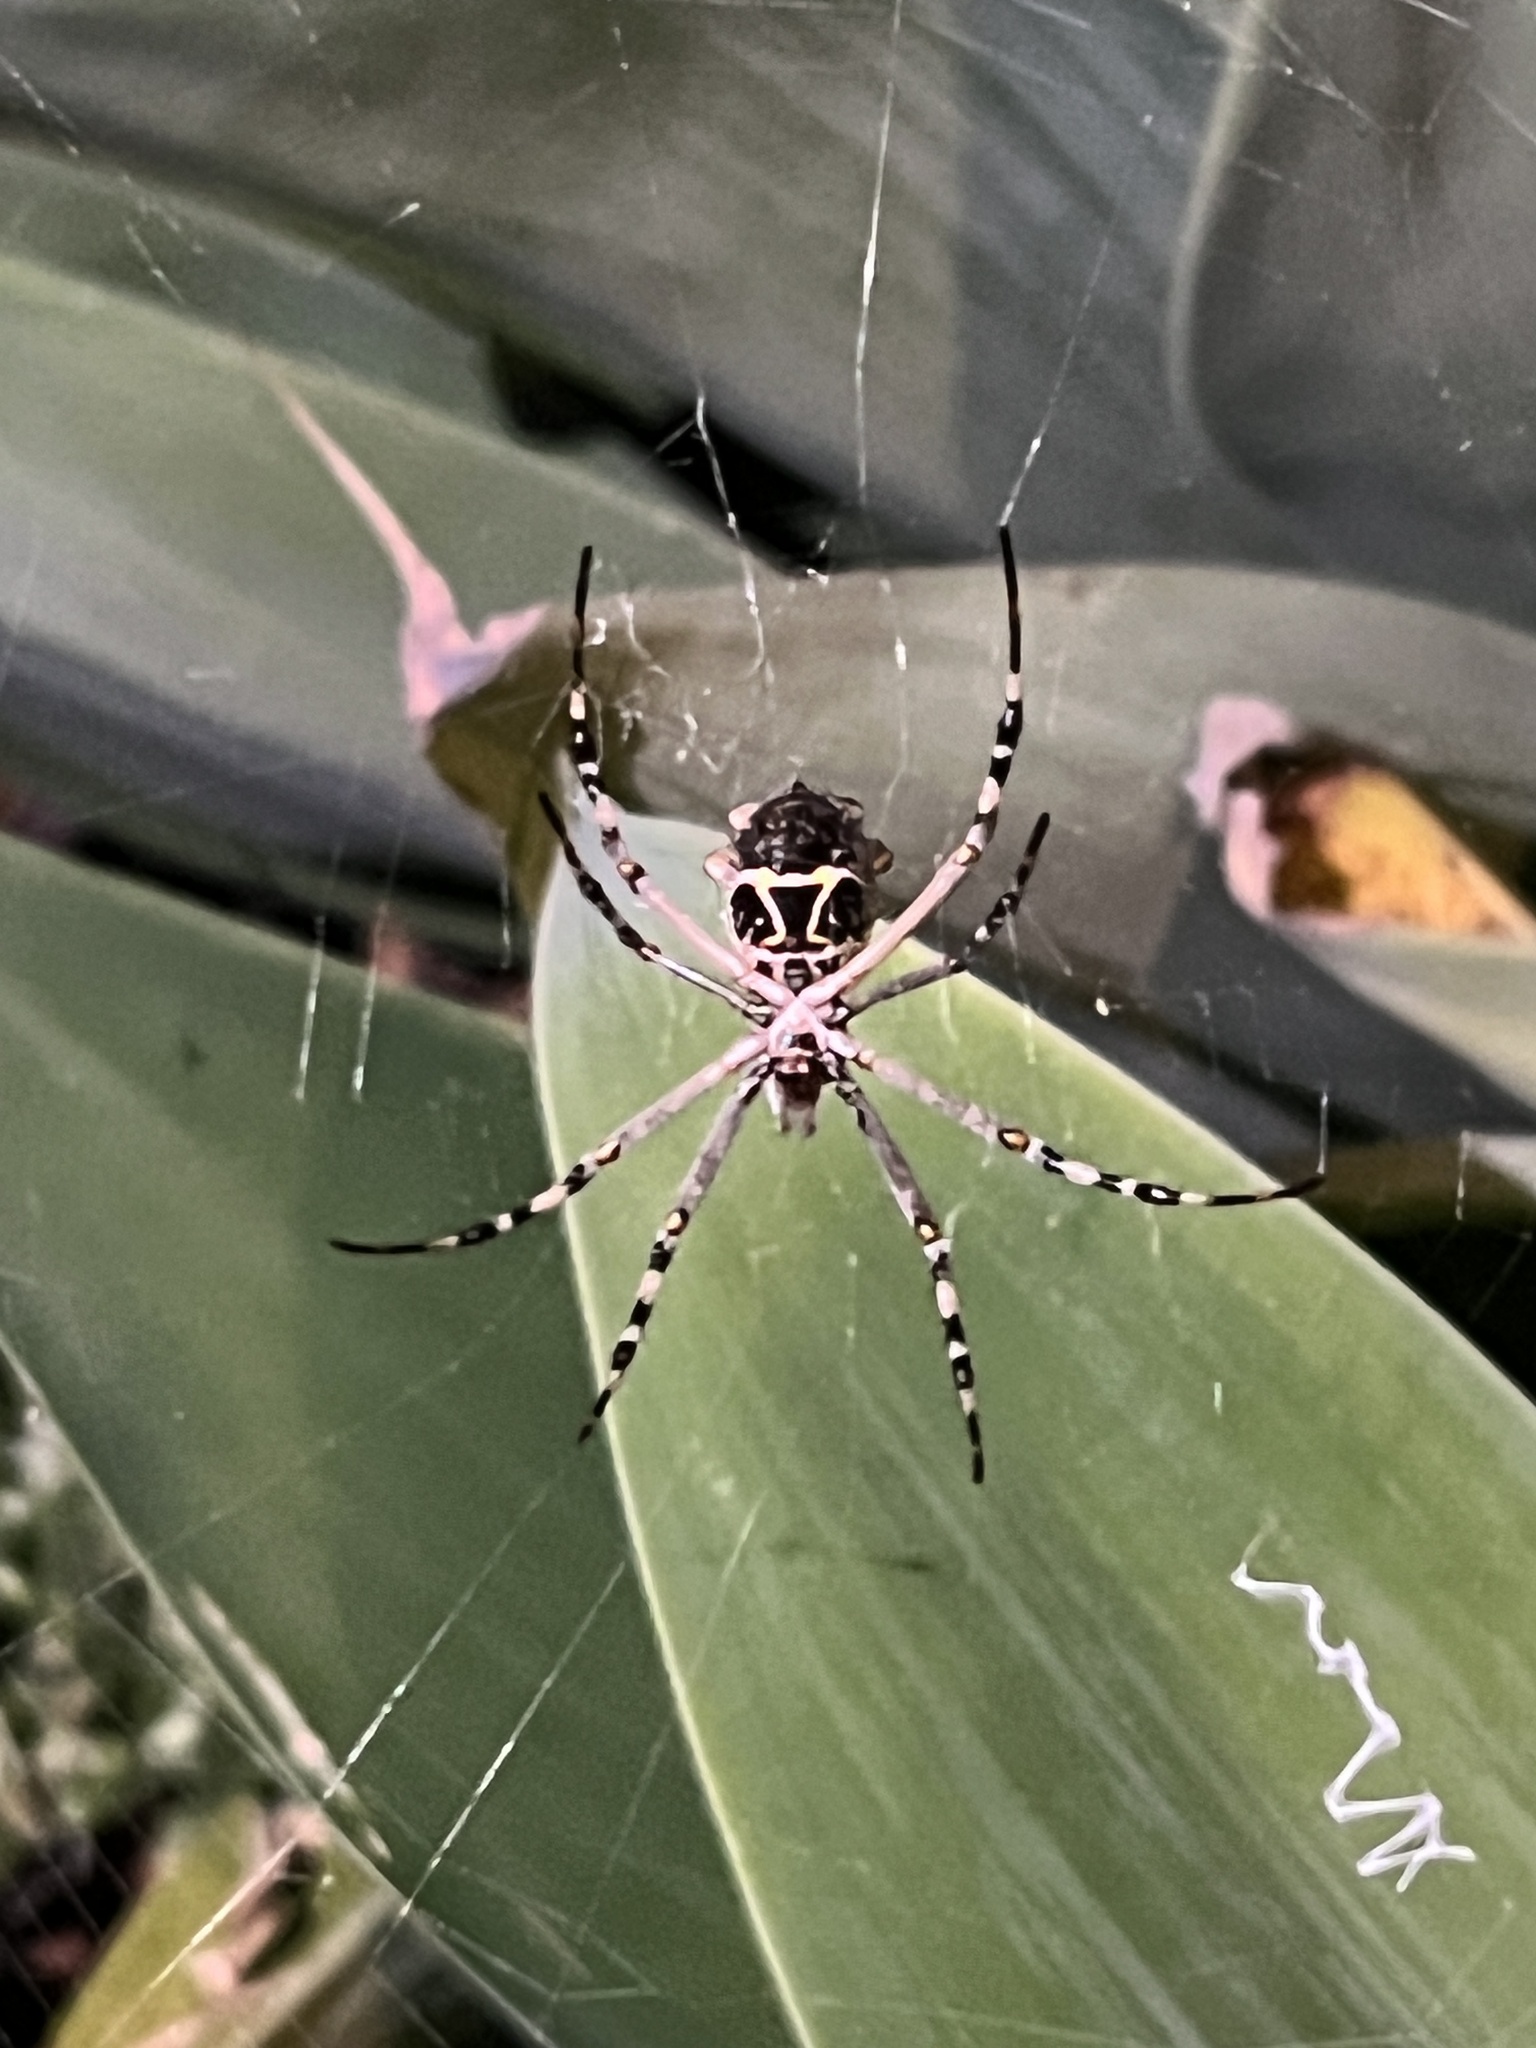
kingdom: Animalia
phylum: Arthropoda
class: Arachnida
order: Araneae
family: Araneidae
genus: Argiope
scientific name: Argiope argentata
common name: Orb weavers
